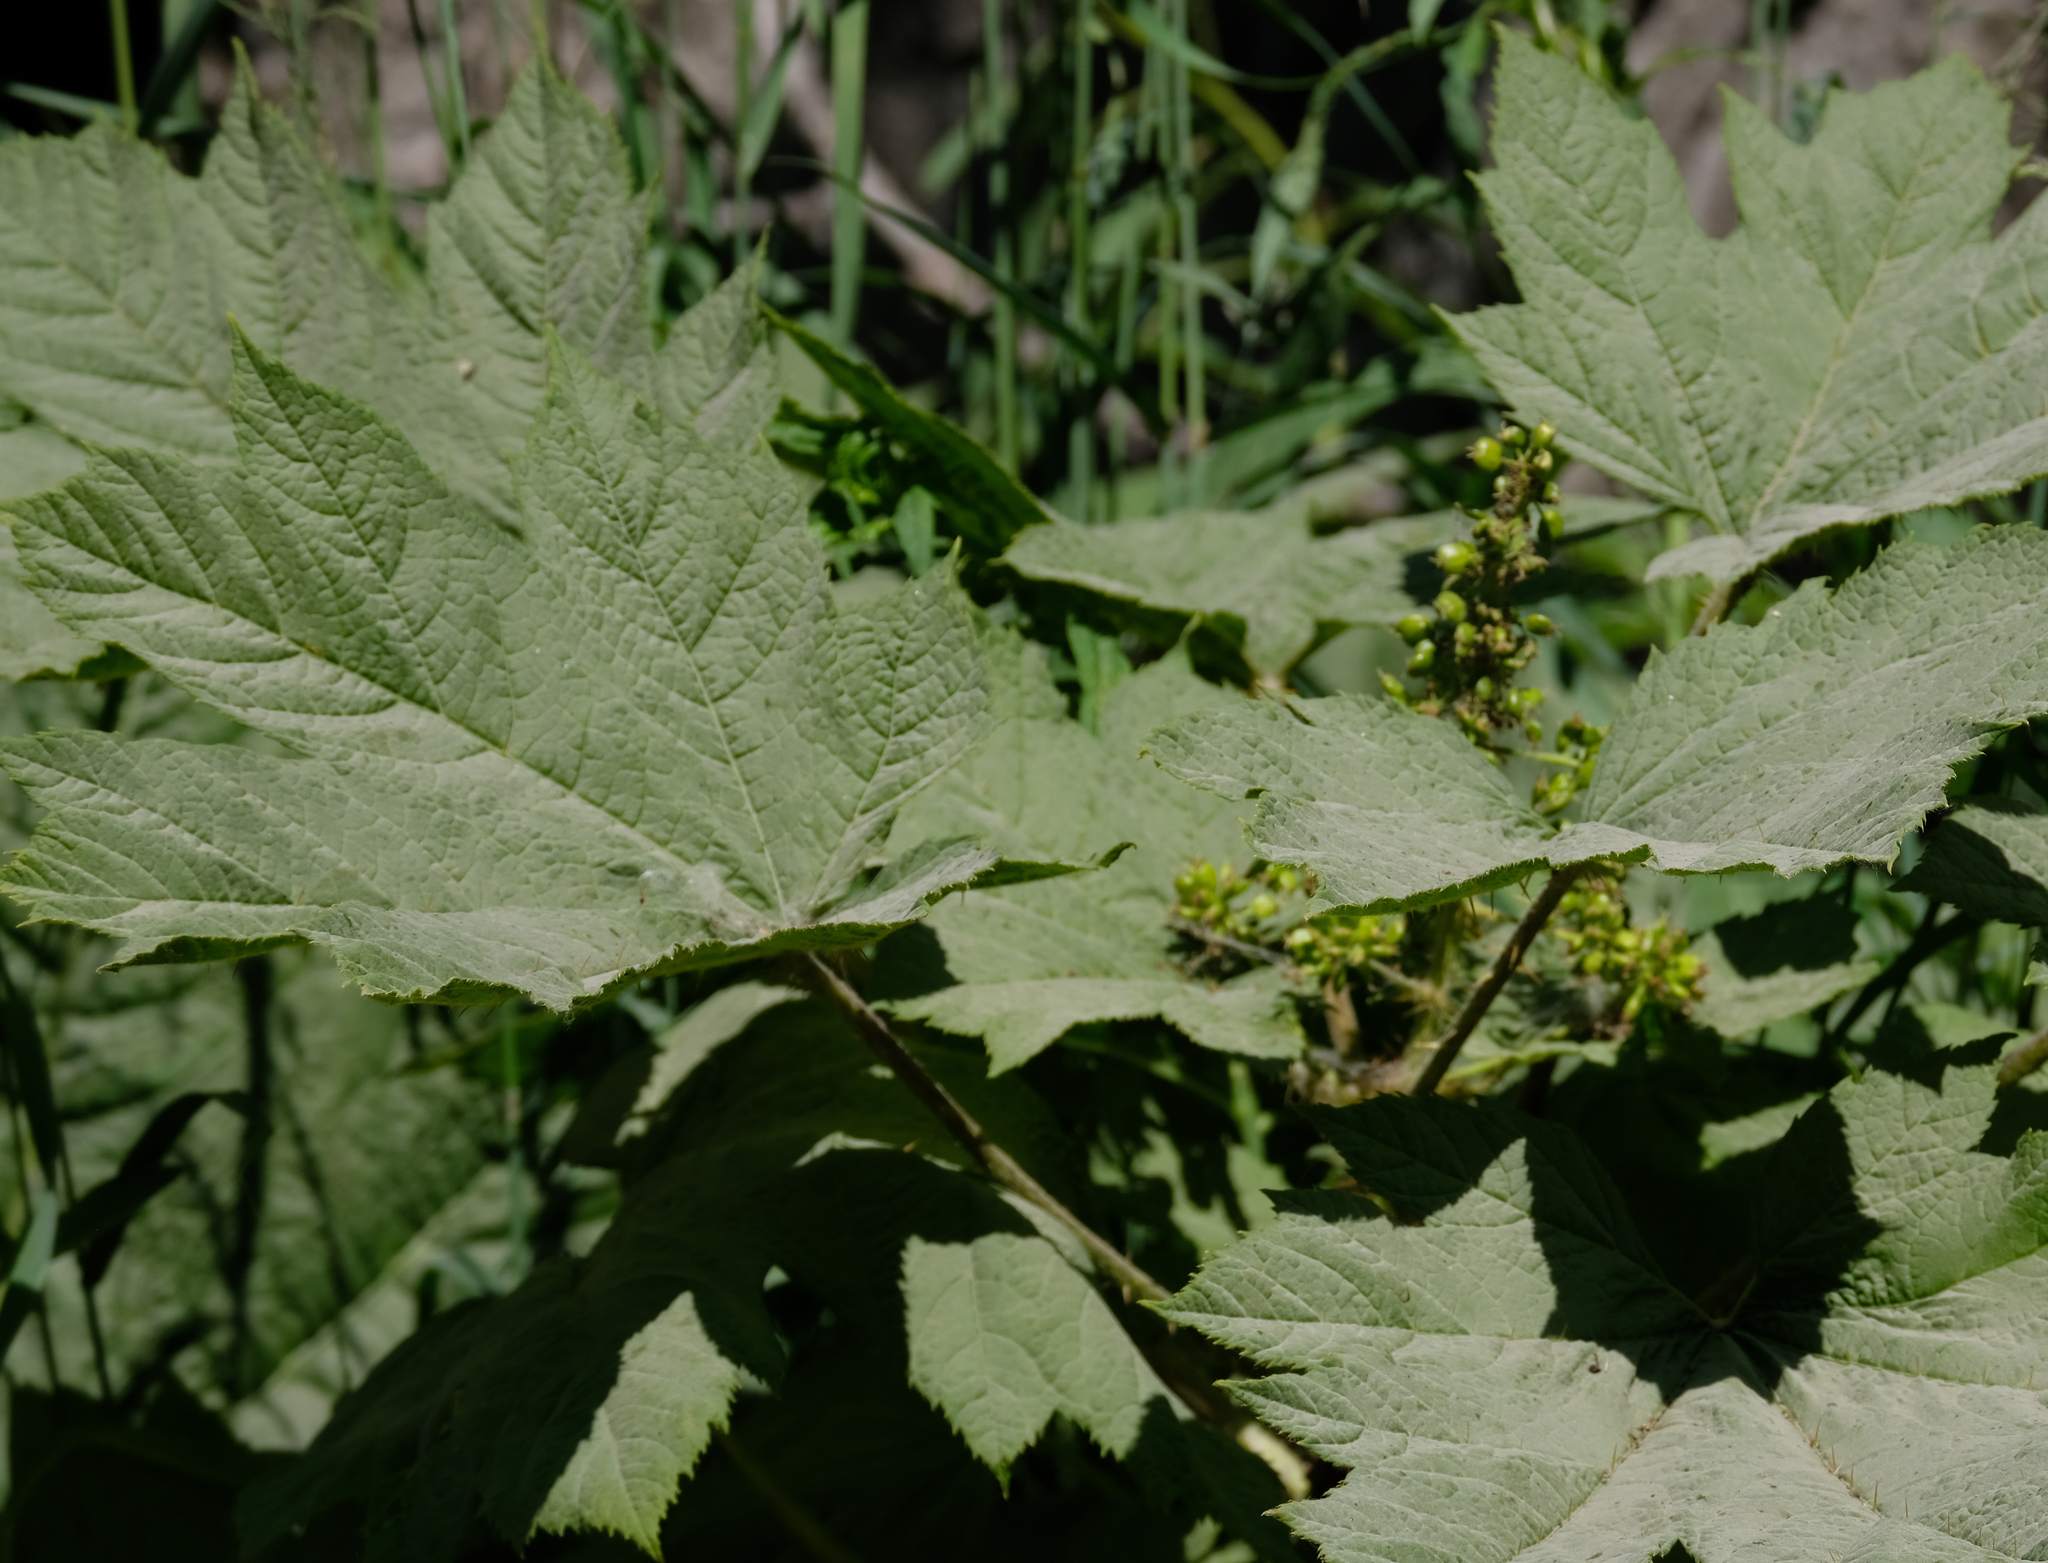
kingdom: Plantae
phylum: Tracheophyta
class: Magnoliopsida
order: Apiales
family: Araliaceae
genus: Oplopanax
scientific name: Oplopanax horridus
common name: Devil's walking-stick
